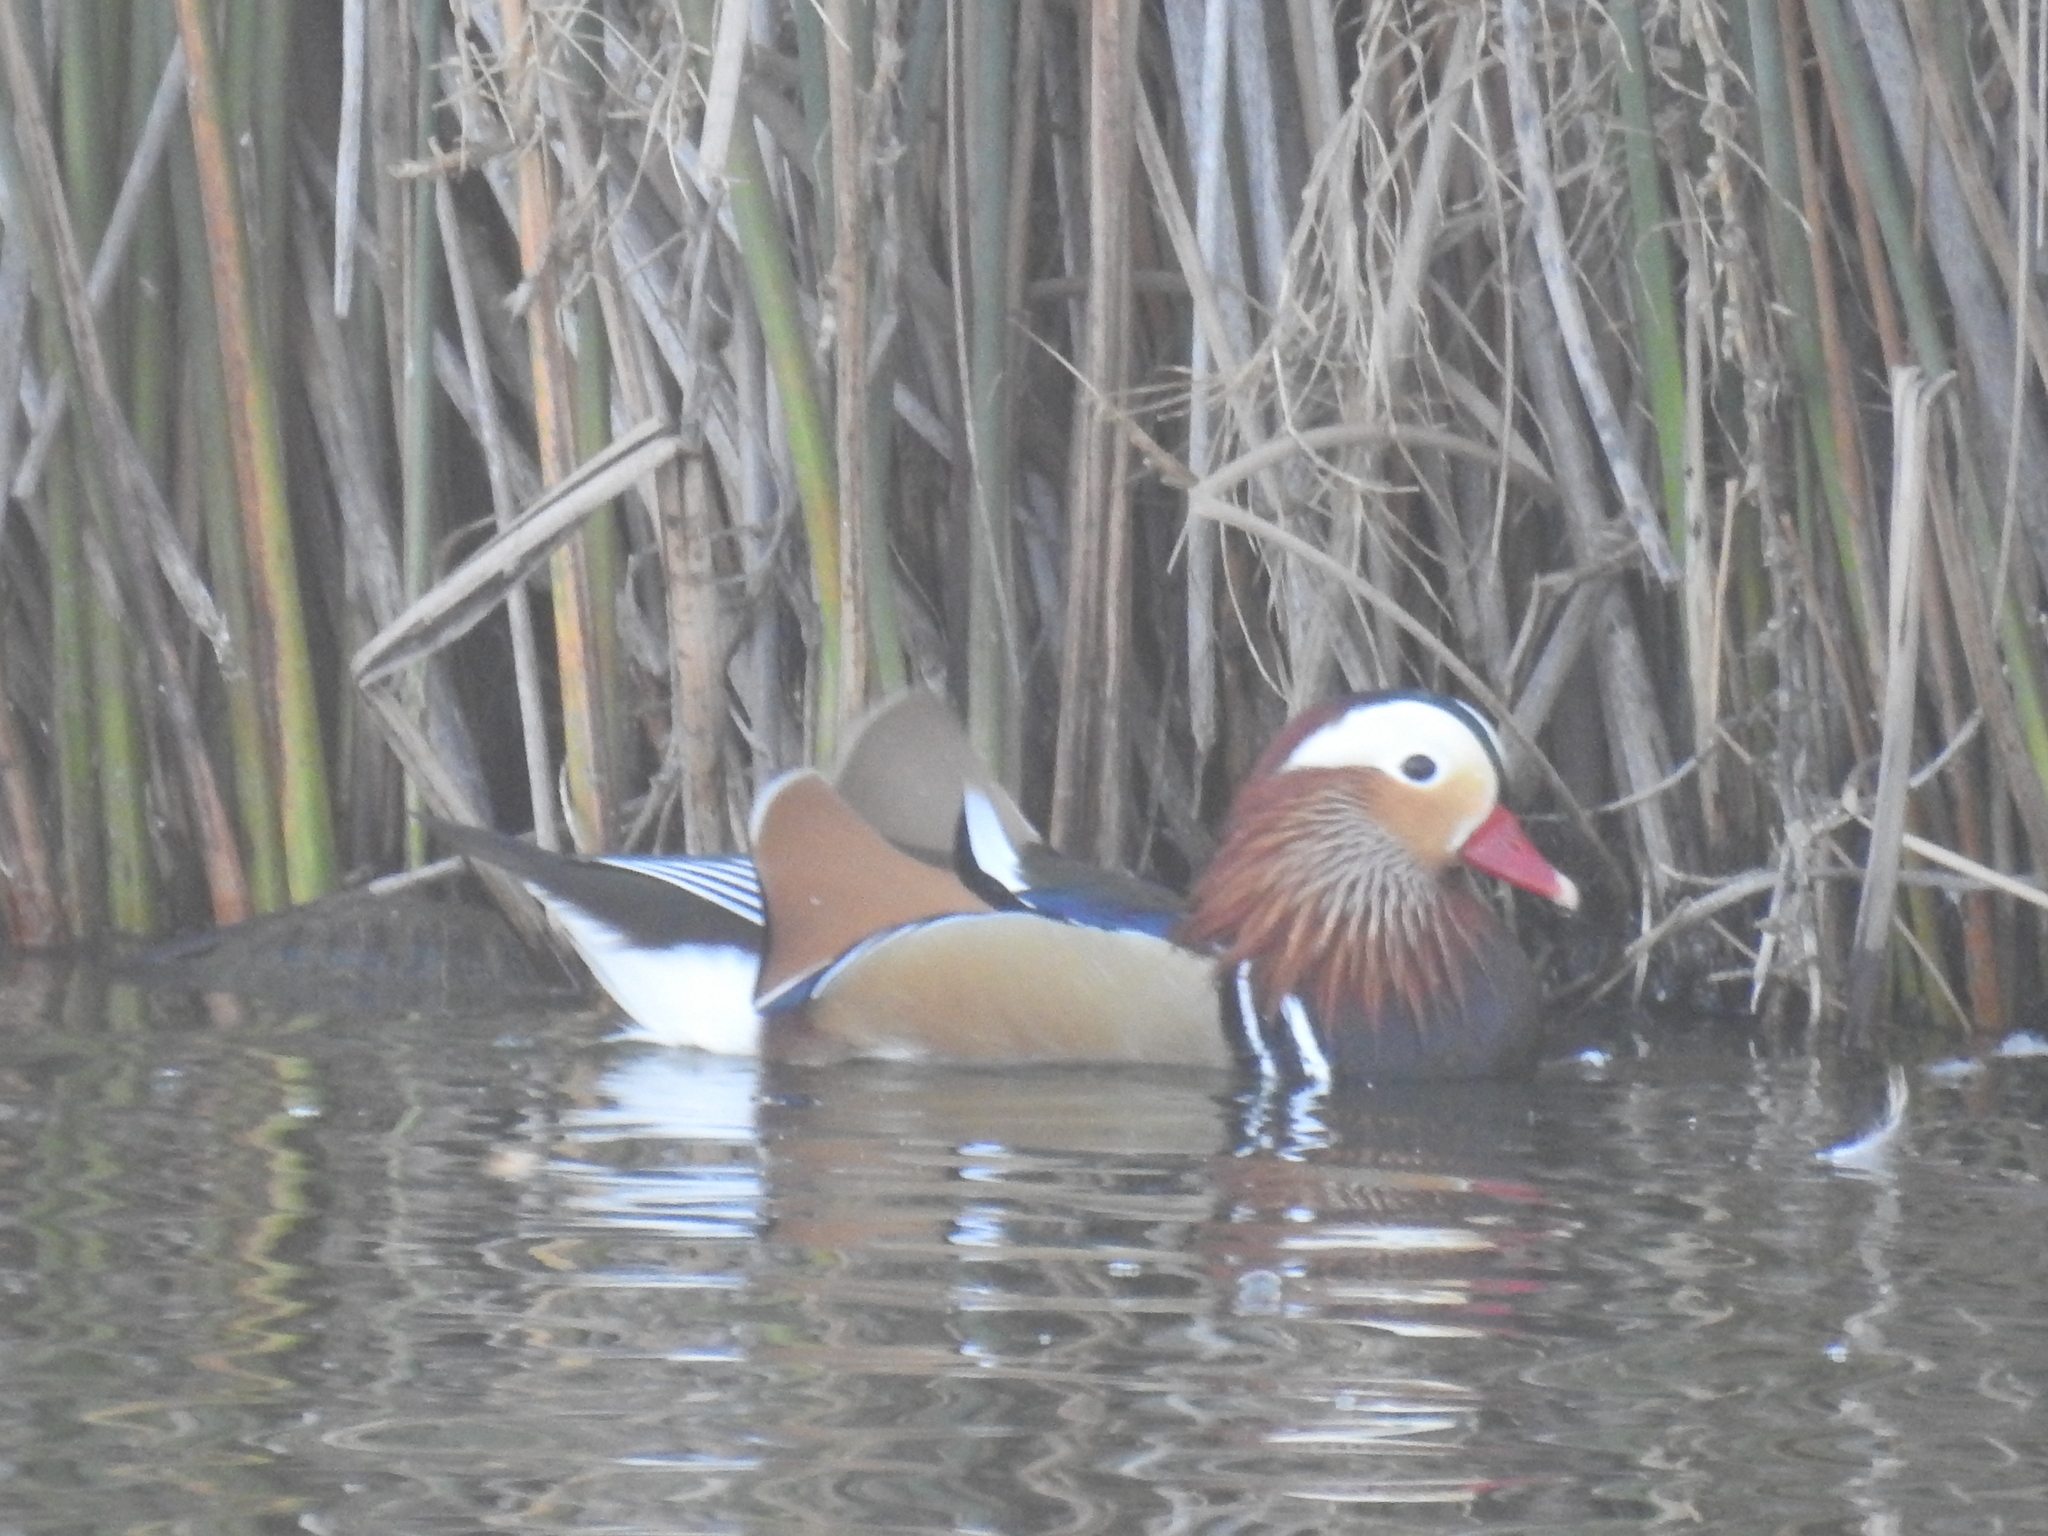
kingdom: Animalia
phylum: Chordata
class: Aves
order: Anseriformes
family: Anatidae
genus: Aix
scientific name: Aix galericulata
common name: Mandarin duck
